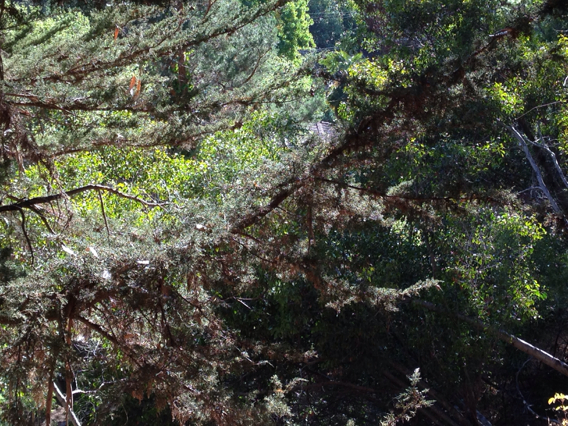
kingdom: Plantae
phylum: Tracheophyta
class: Pinopsida
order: Pinales
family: Cupressaceae
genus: Cupressus
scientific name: Cupressus macrocarpa
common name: Monterey cypress
